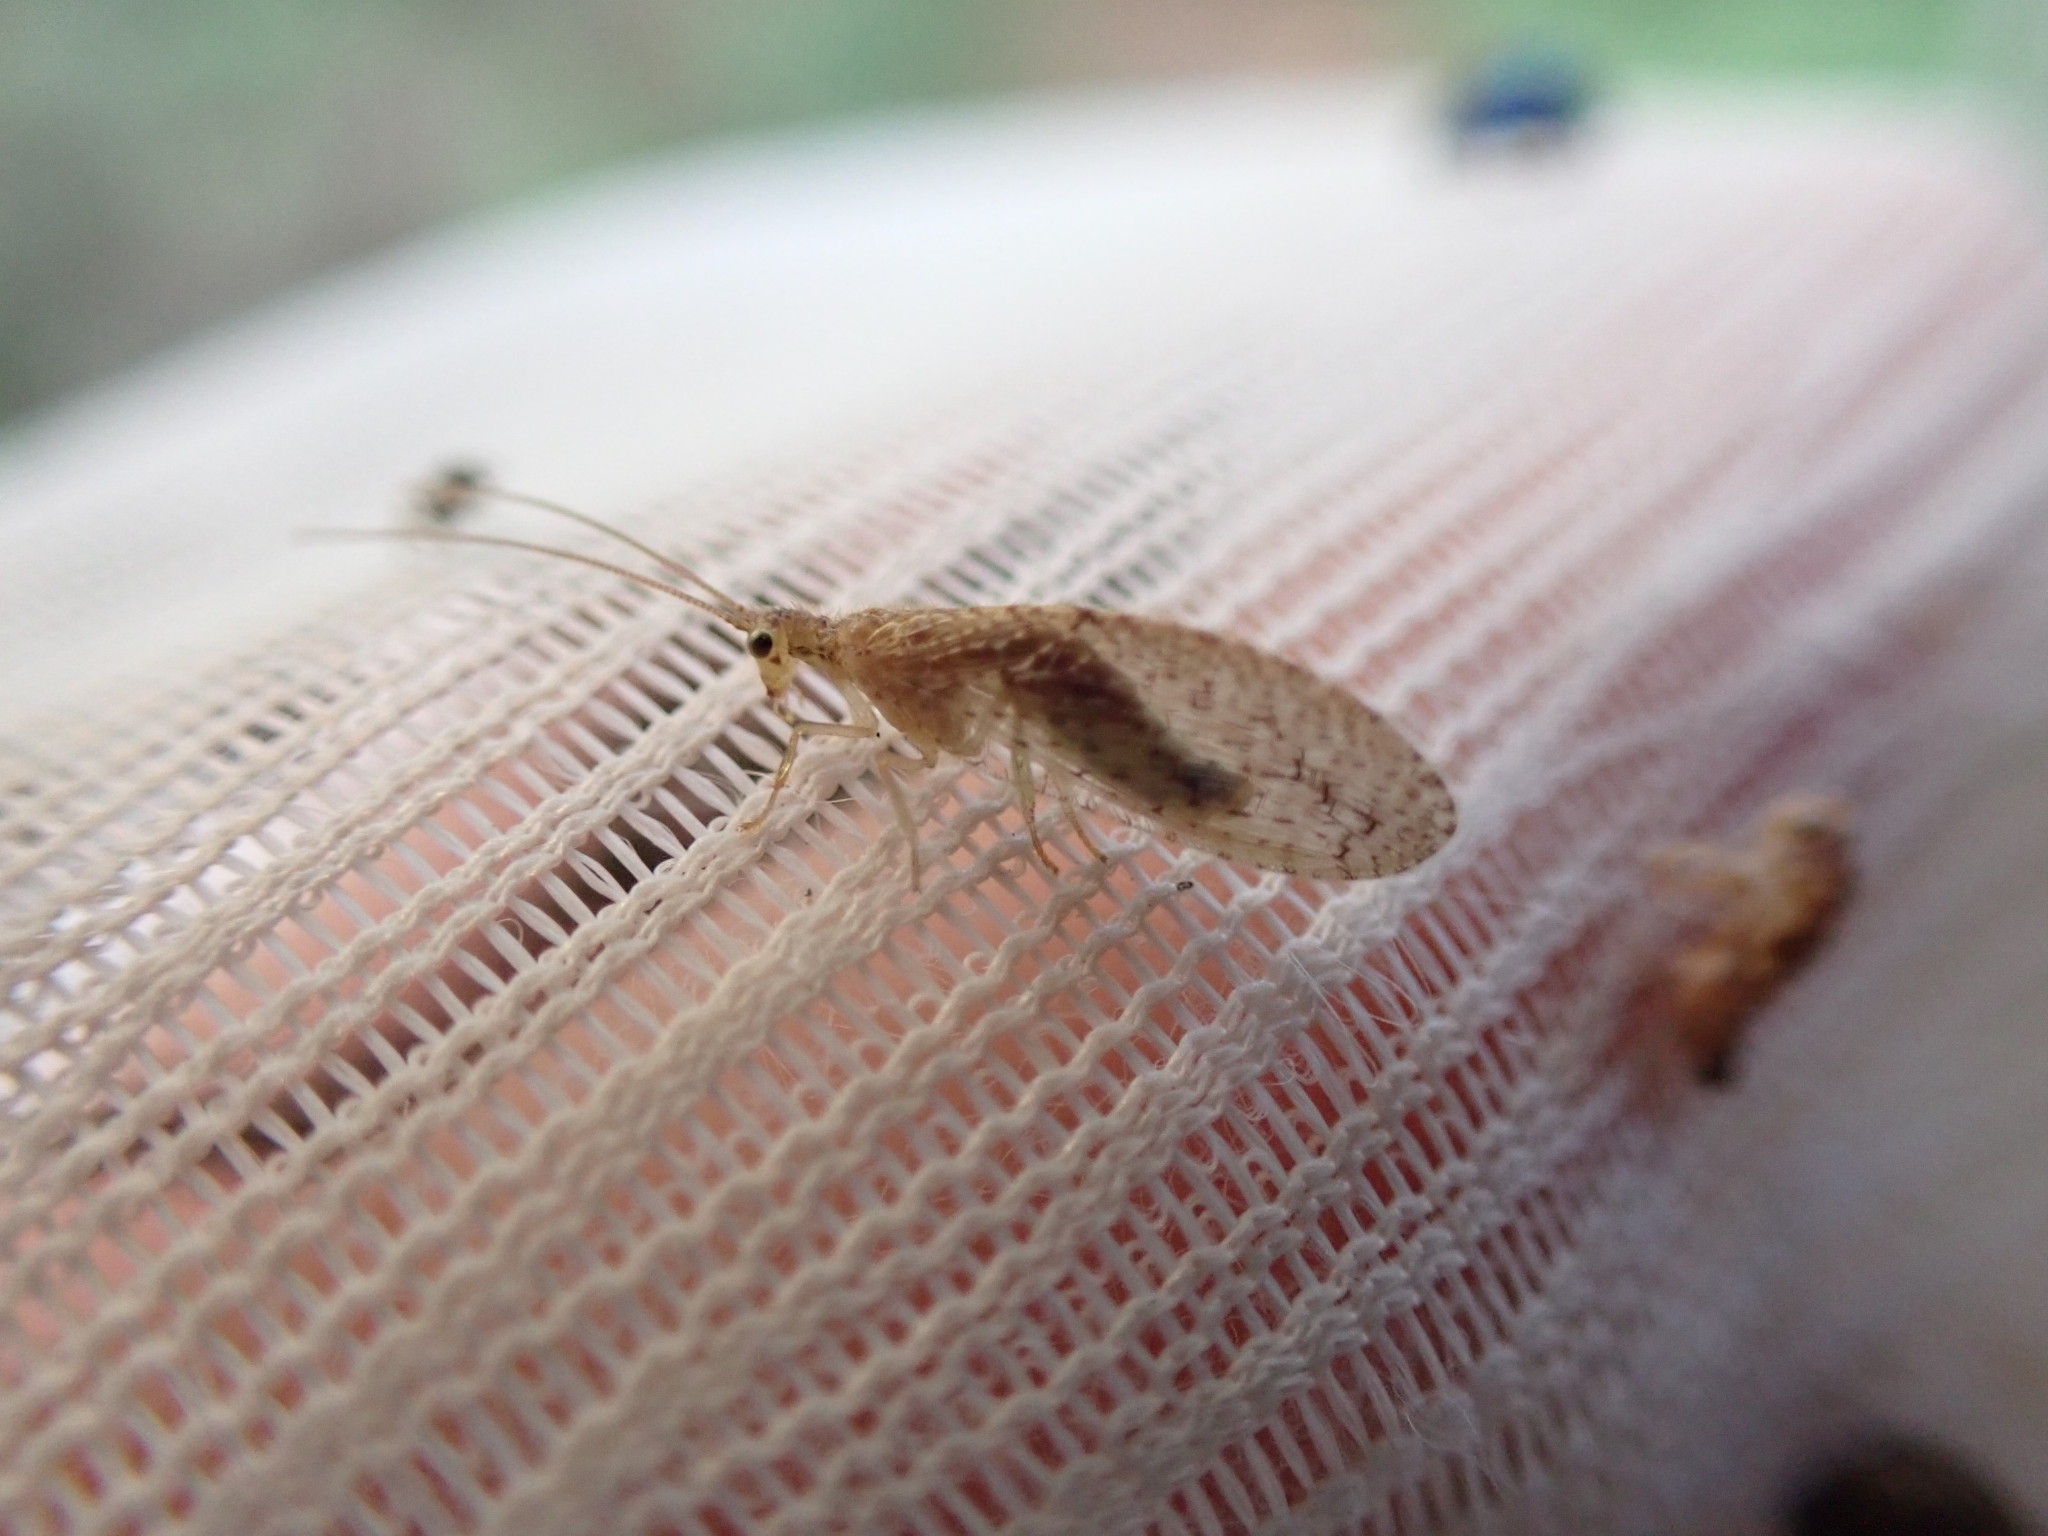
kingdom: Animalia
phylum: Arthropoda
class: Insecta
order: Neuroptera
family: Hemerobiidae
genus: Micromus
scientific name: Micromus tasmaniae
